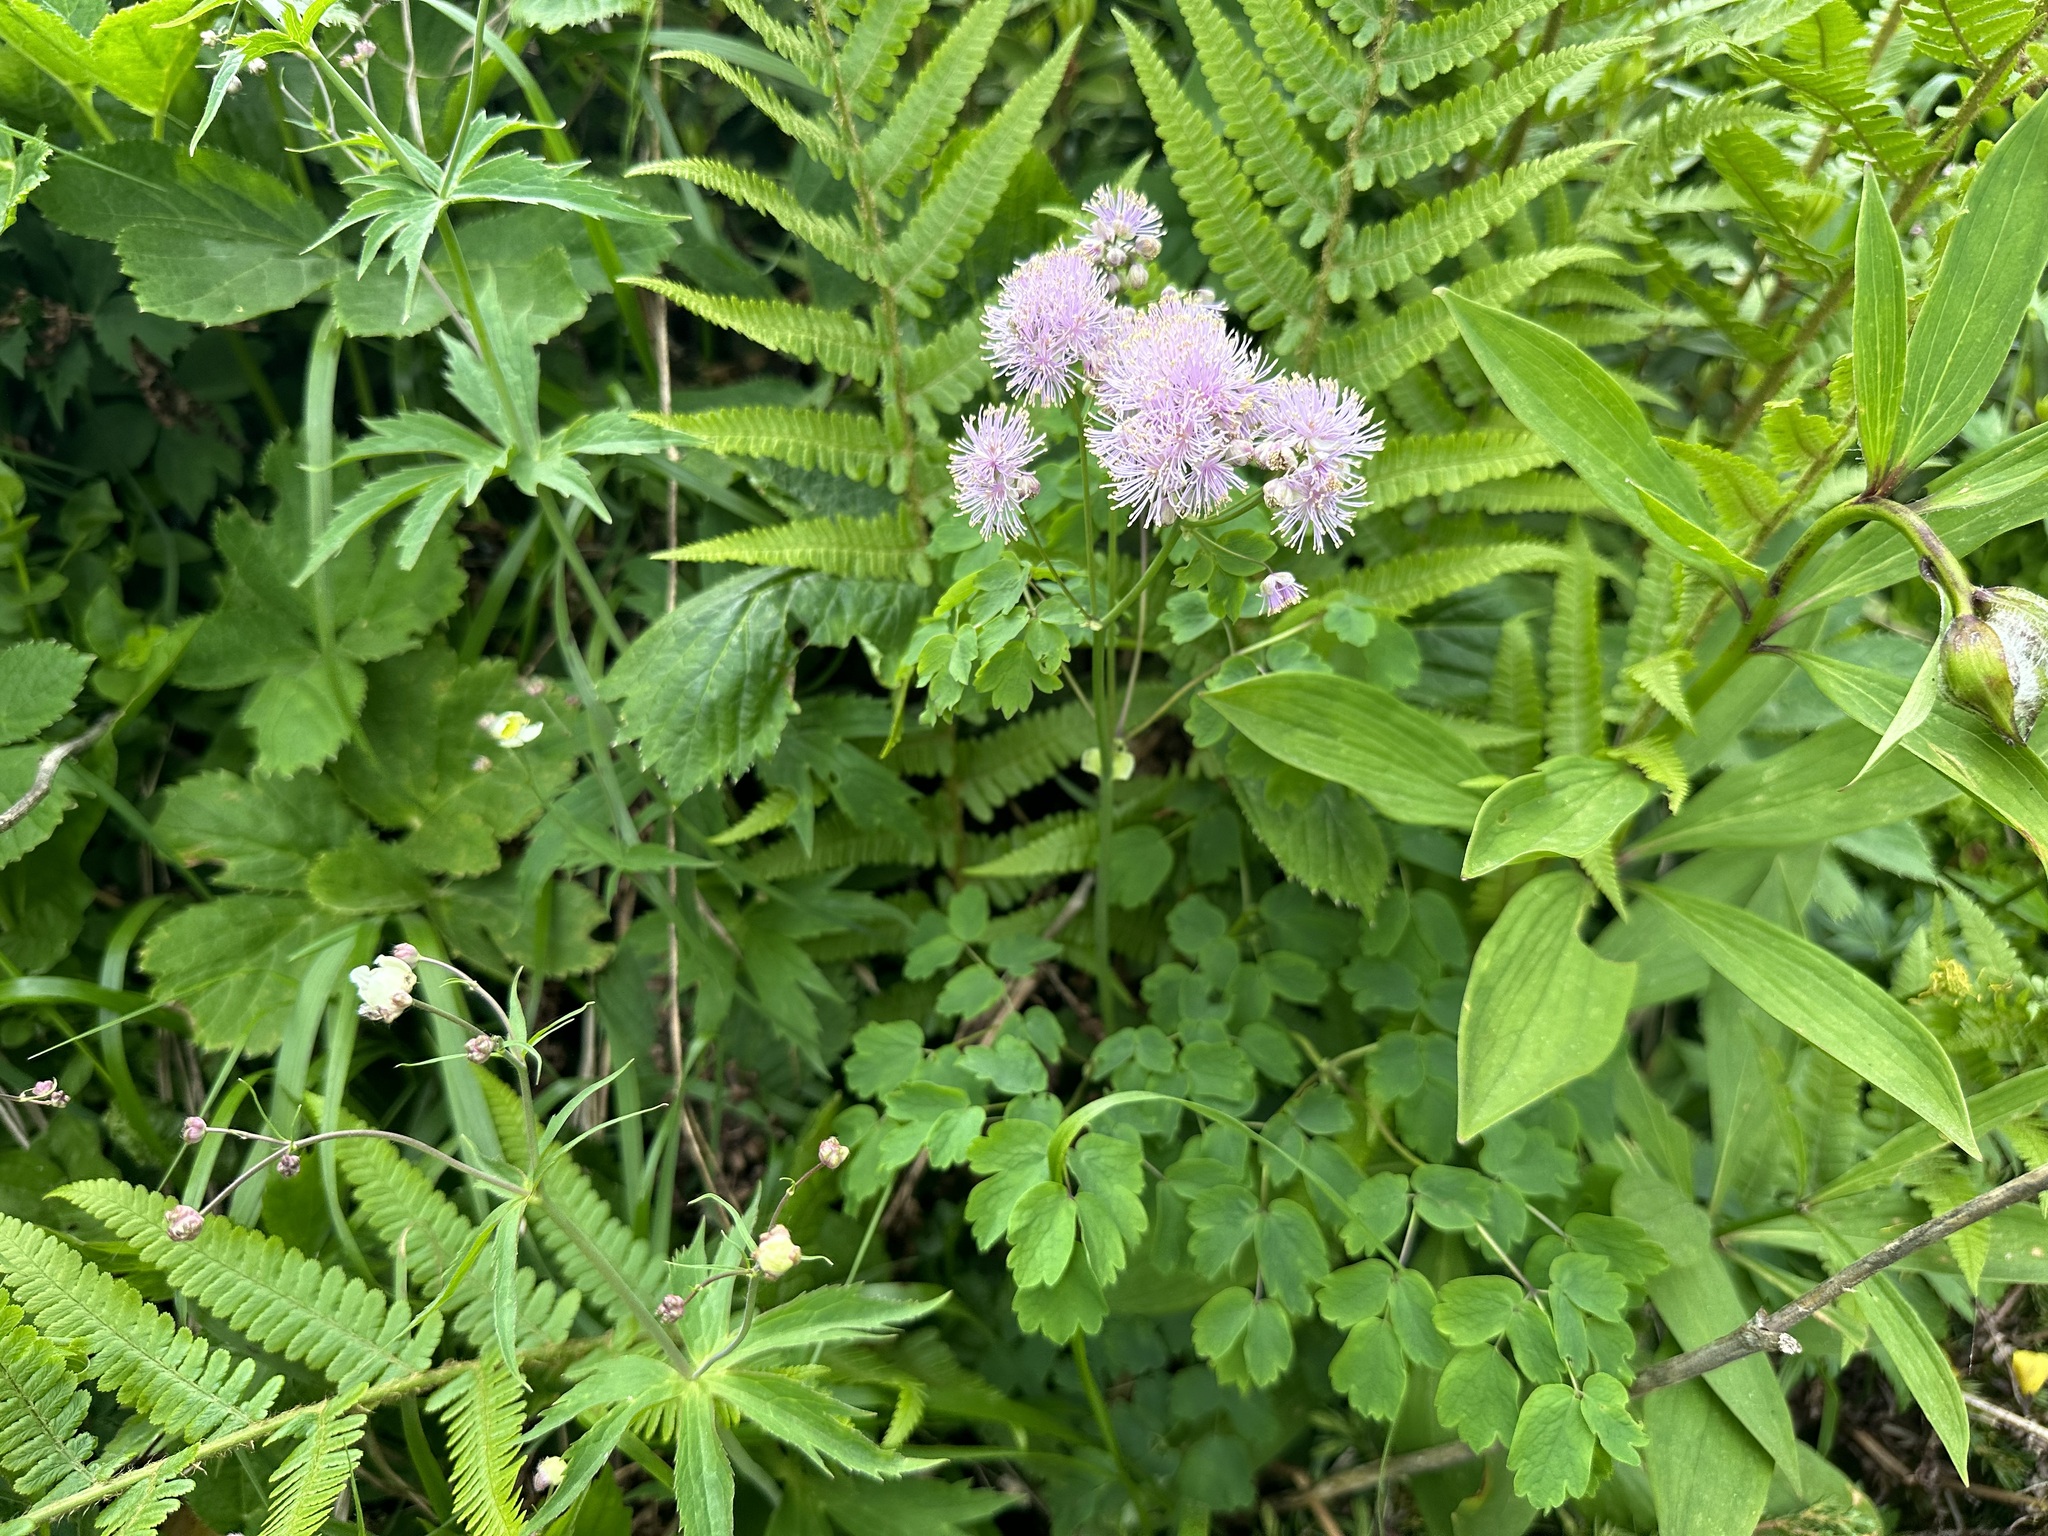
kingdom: Plantae
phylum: Tracheophyta
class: Magnoliopsida
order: Ranunculales
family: Ranunculaceae
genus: Thalictrum
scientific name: Thalictrum aquilegiifolium
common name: French meadow-rue
